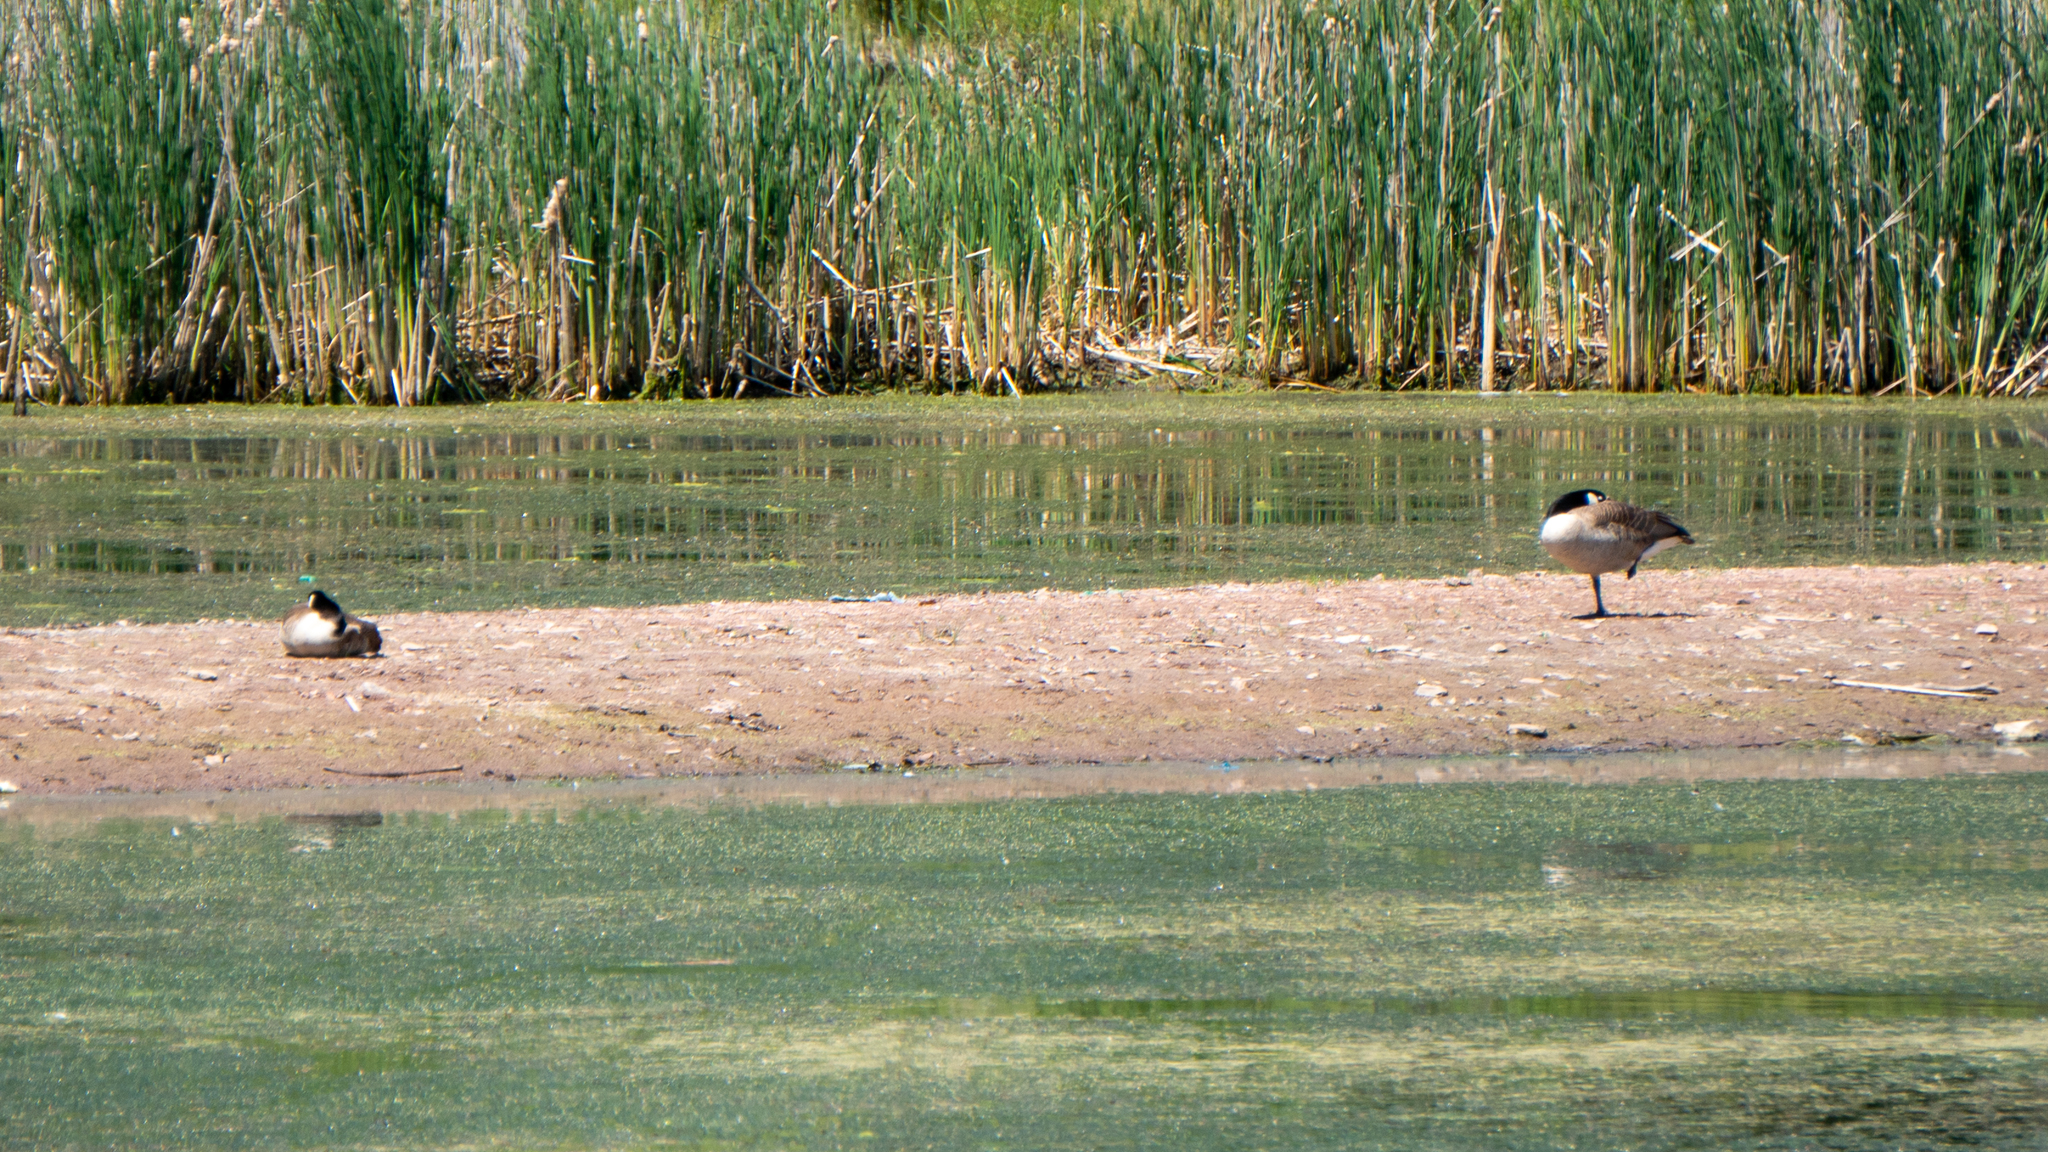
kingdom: Animalia
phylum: Chordata
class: Aves
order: Anseriformes
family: Anatidae
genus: Branta
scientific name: Branta canadensis
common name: Canada goose
